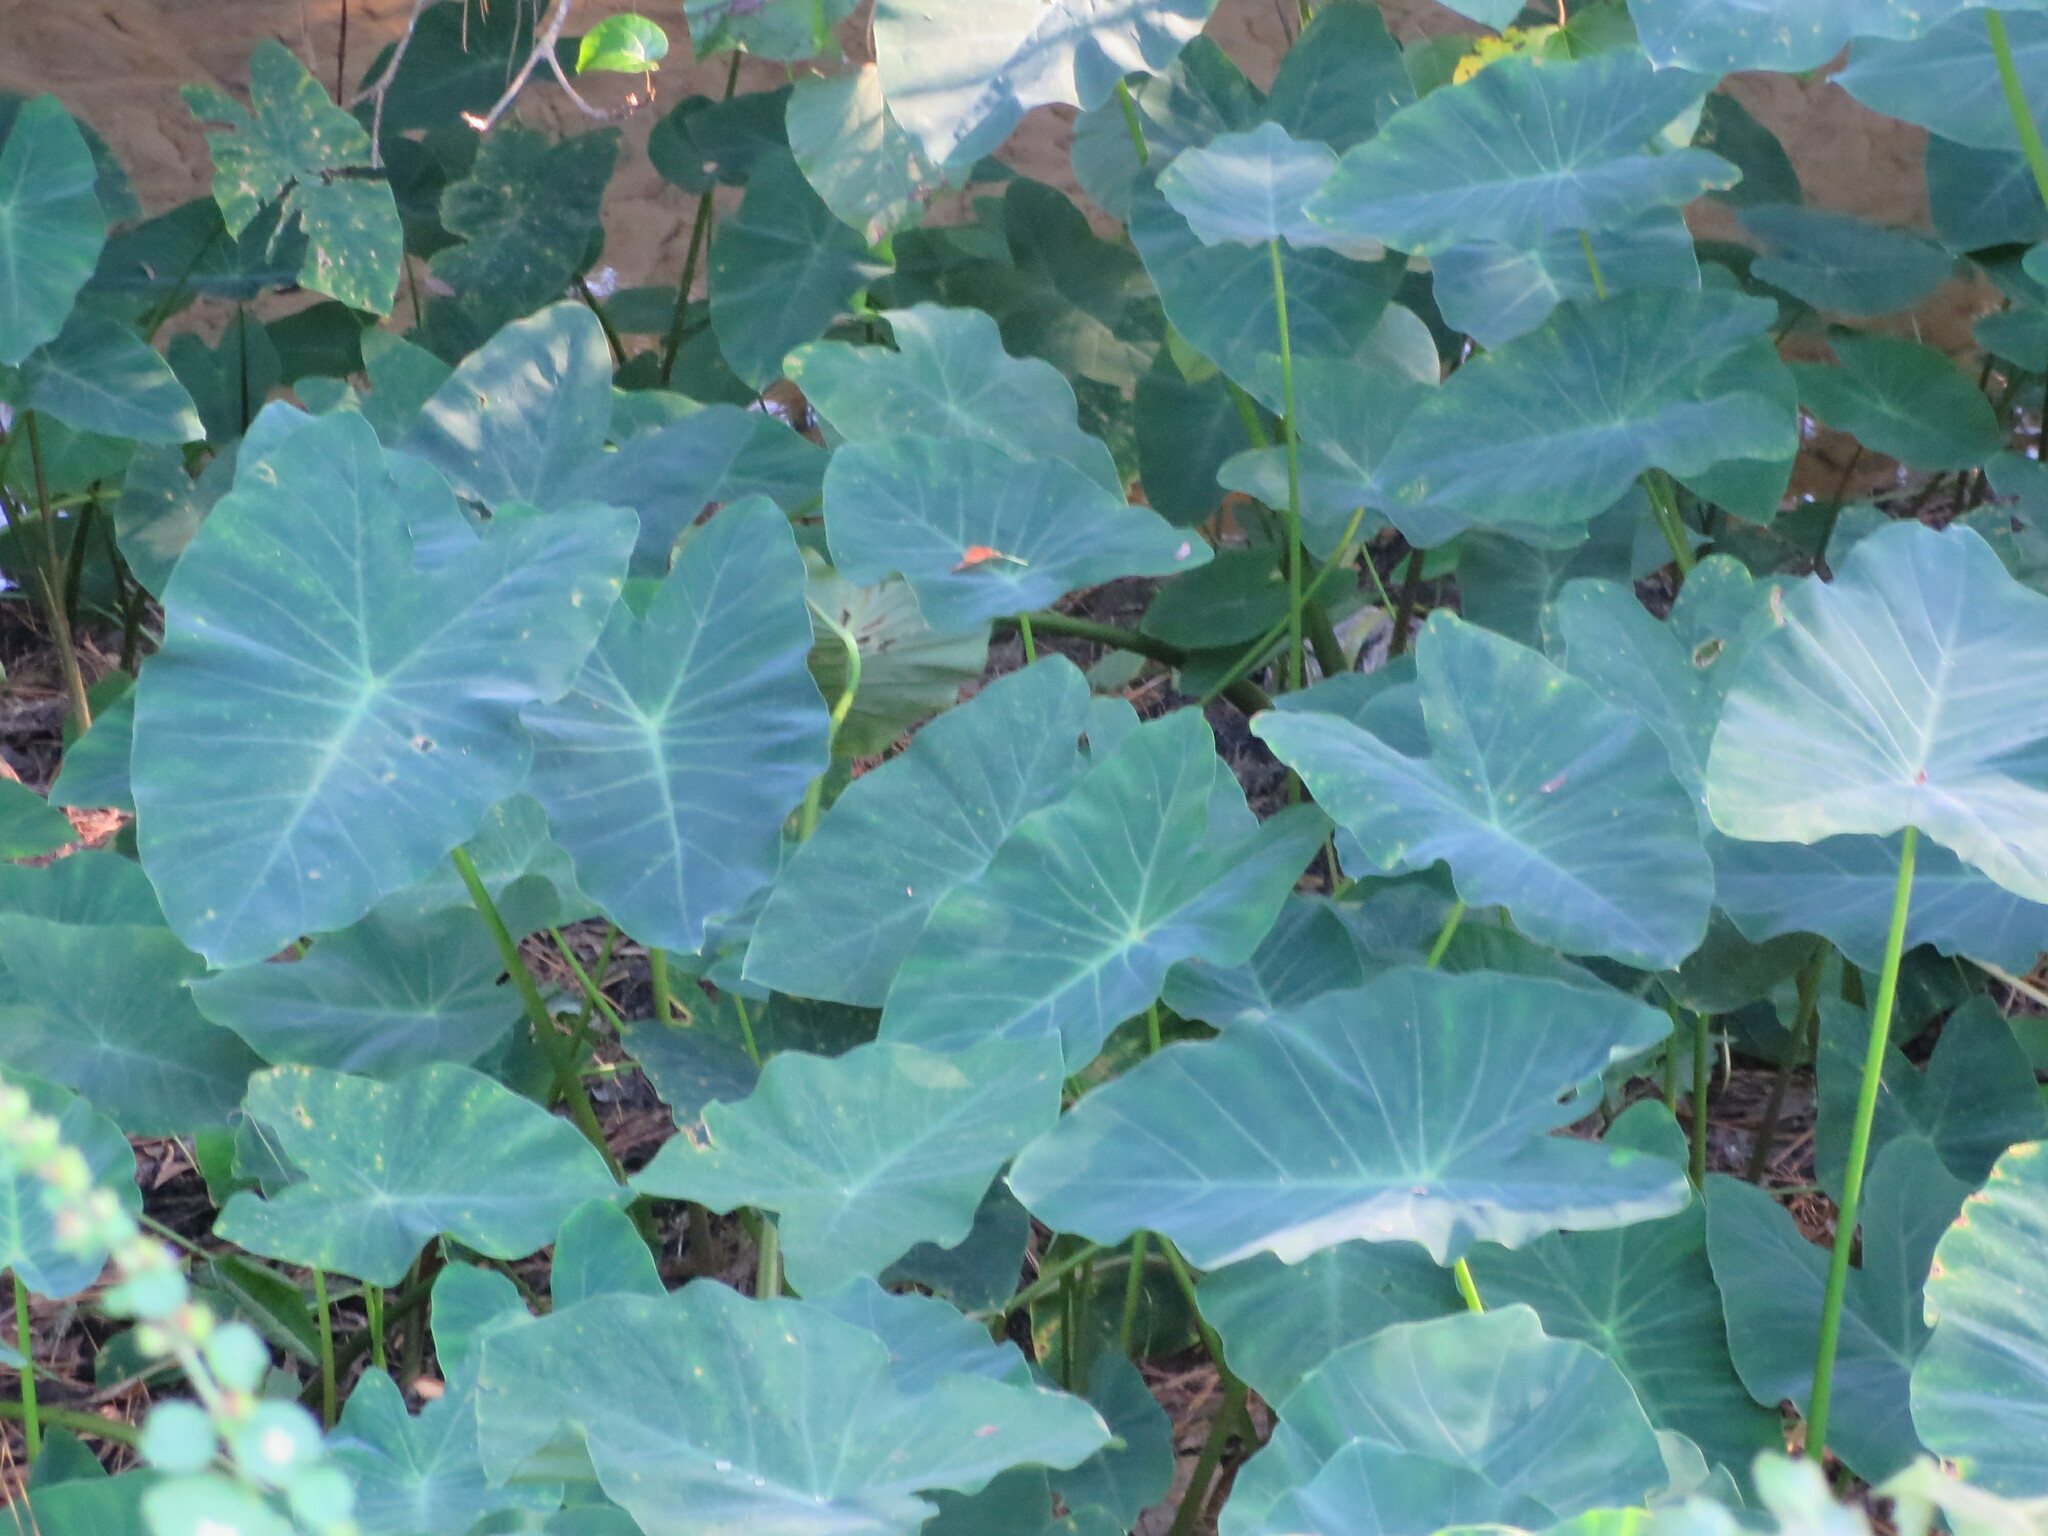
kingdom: Plantae
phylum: Tracheophyta
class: Liliopsida
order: Alismatales
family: Araceae
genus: Colocasia
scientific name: Colocasia esculenta
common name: Taro
